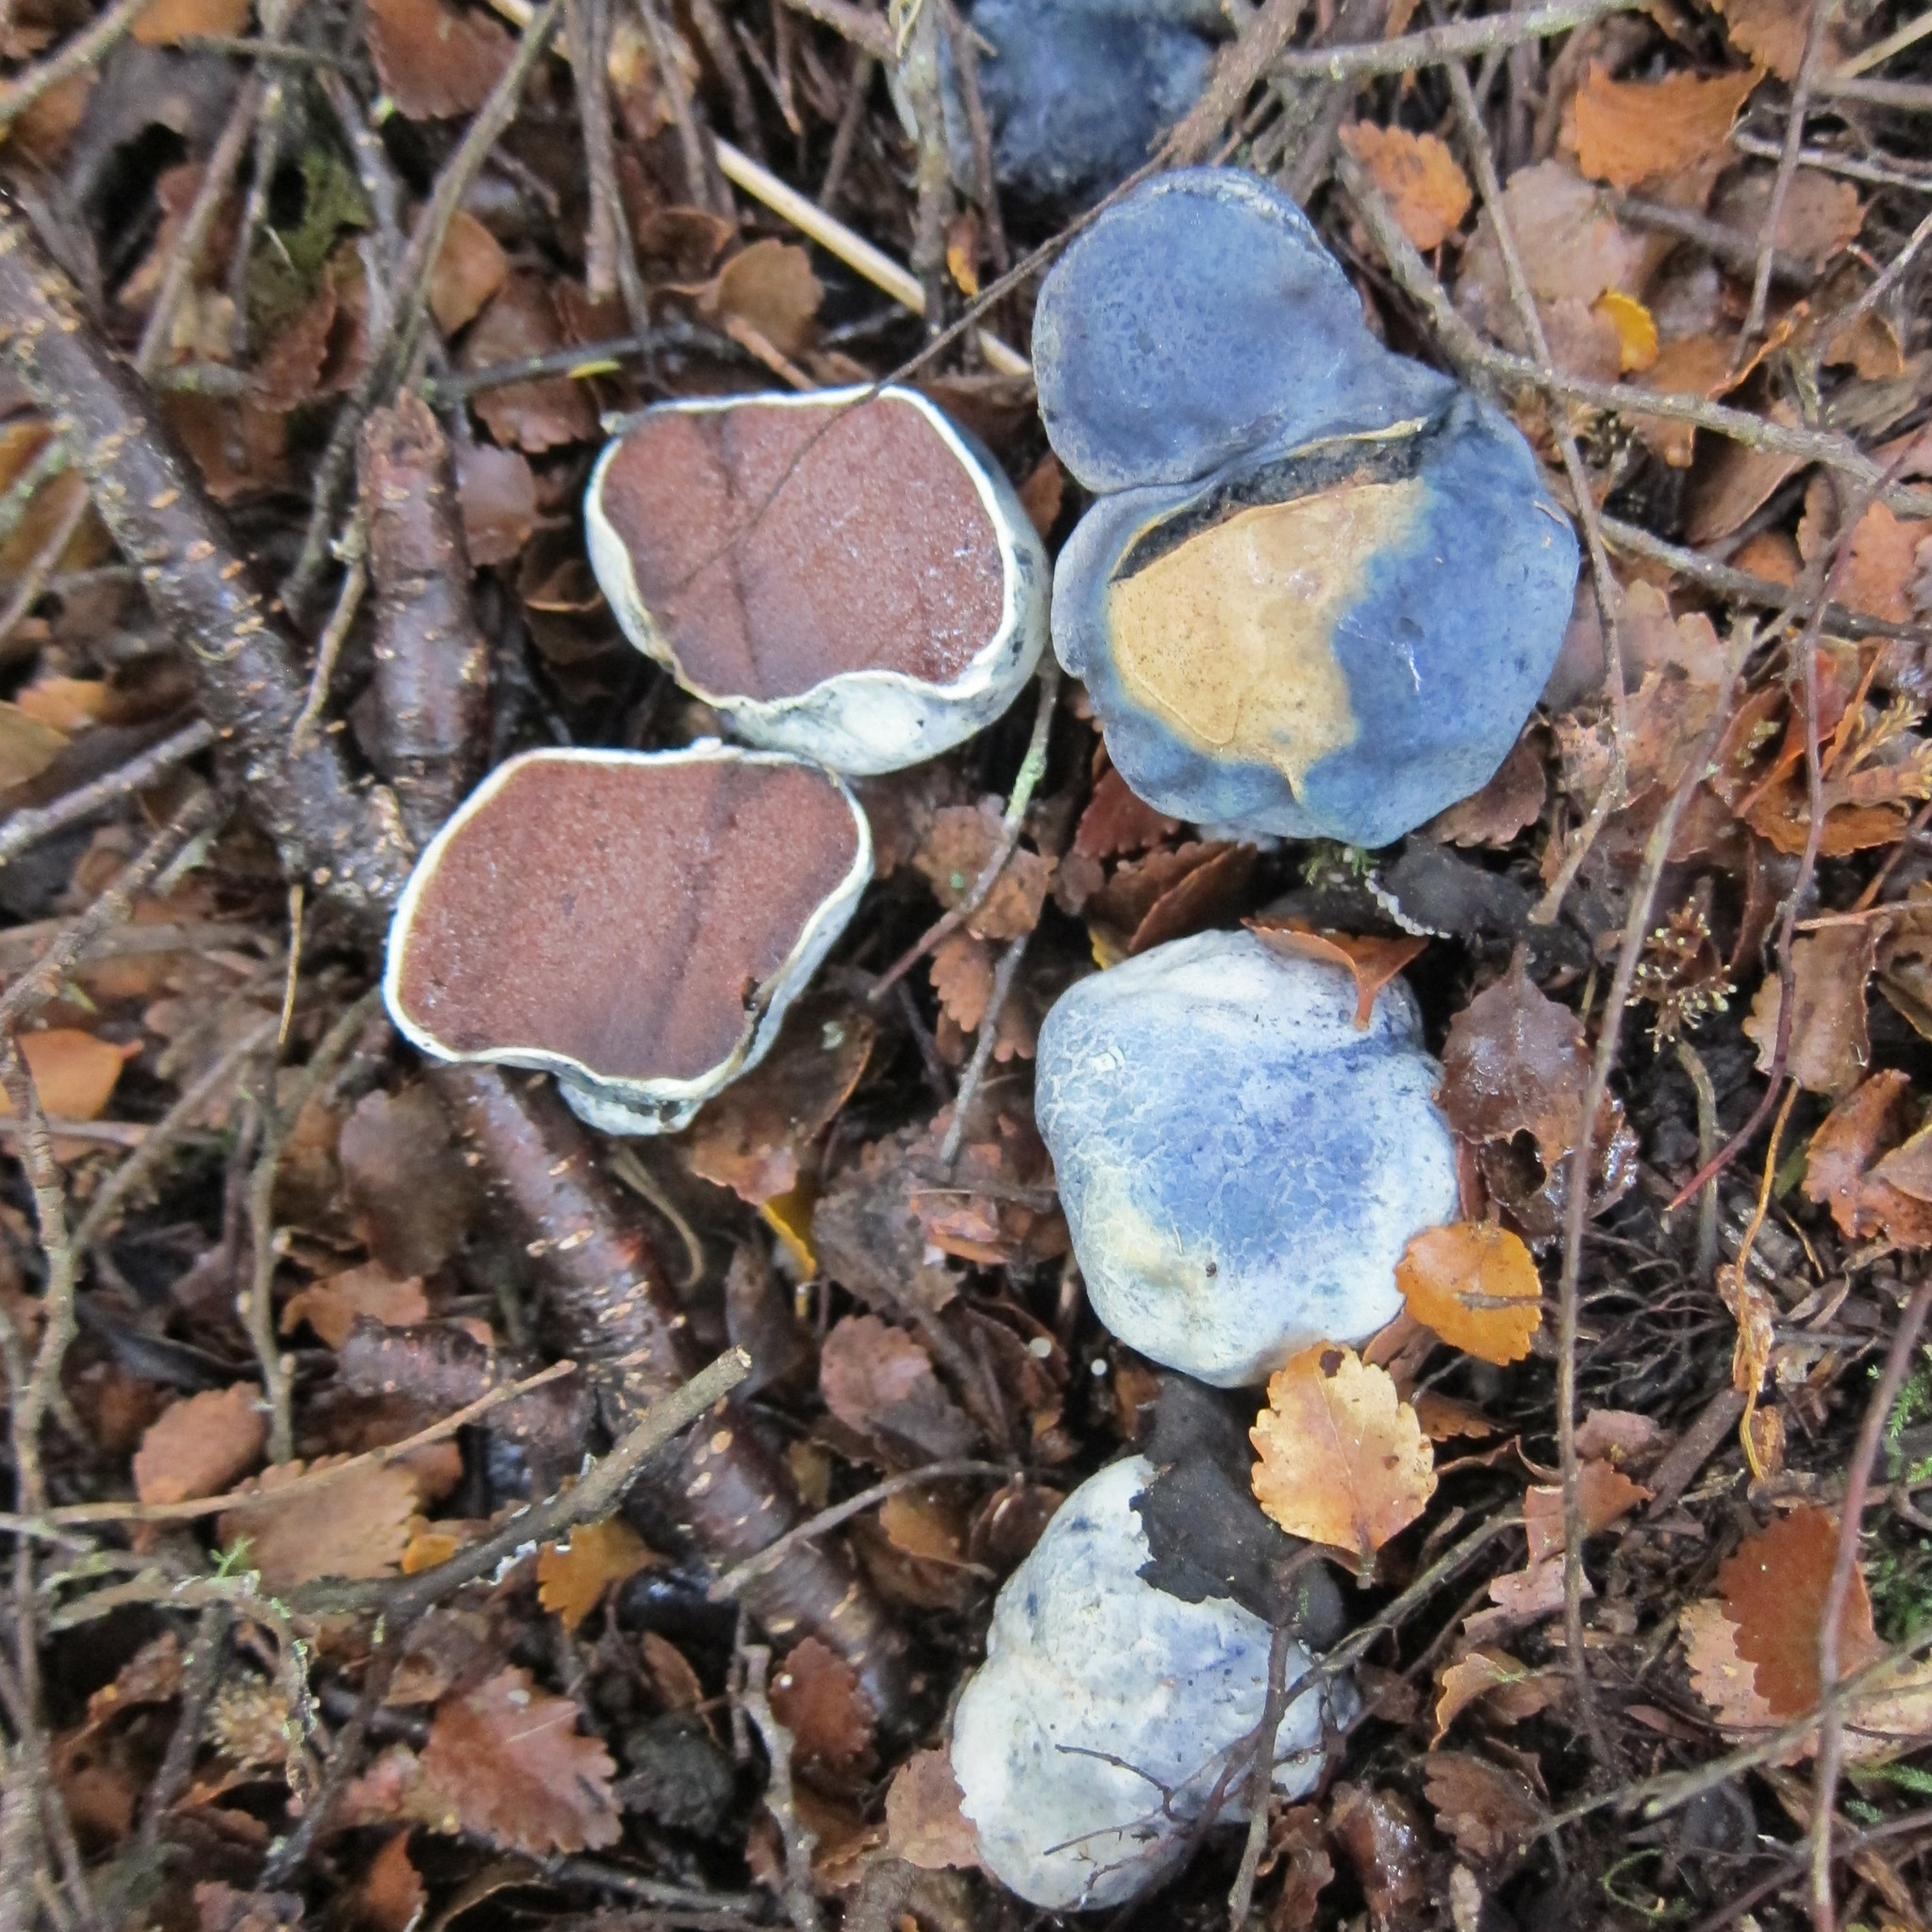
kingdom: Fungi
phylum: Basidiomycota
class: Agaricomycetes
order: Boletales
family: Boletaceae
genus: Leccinum
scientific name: Leccinum pachyderme
